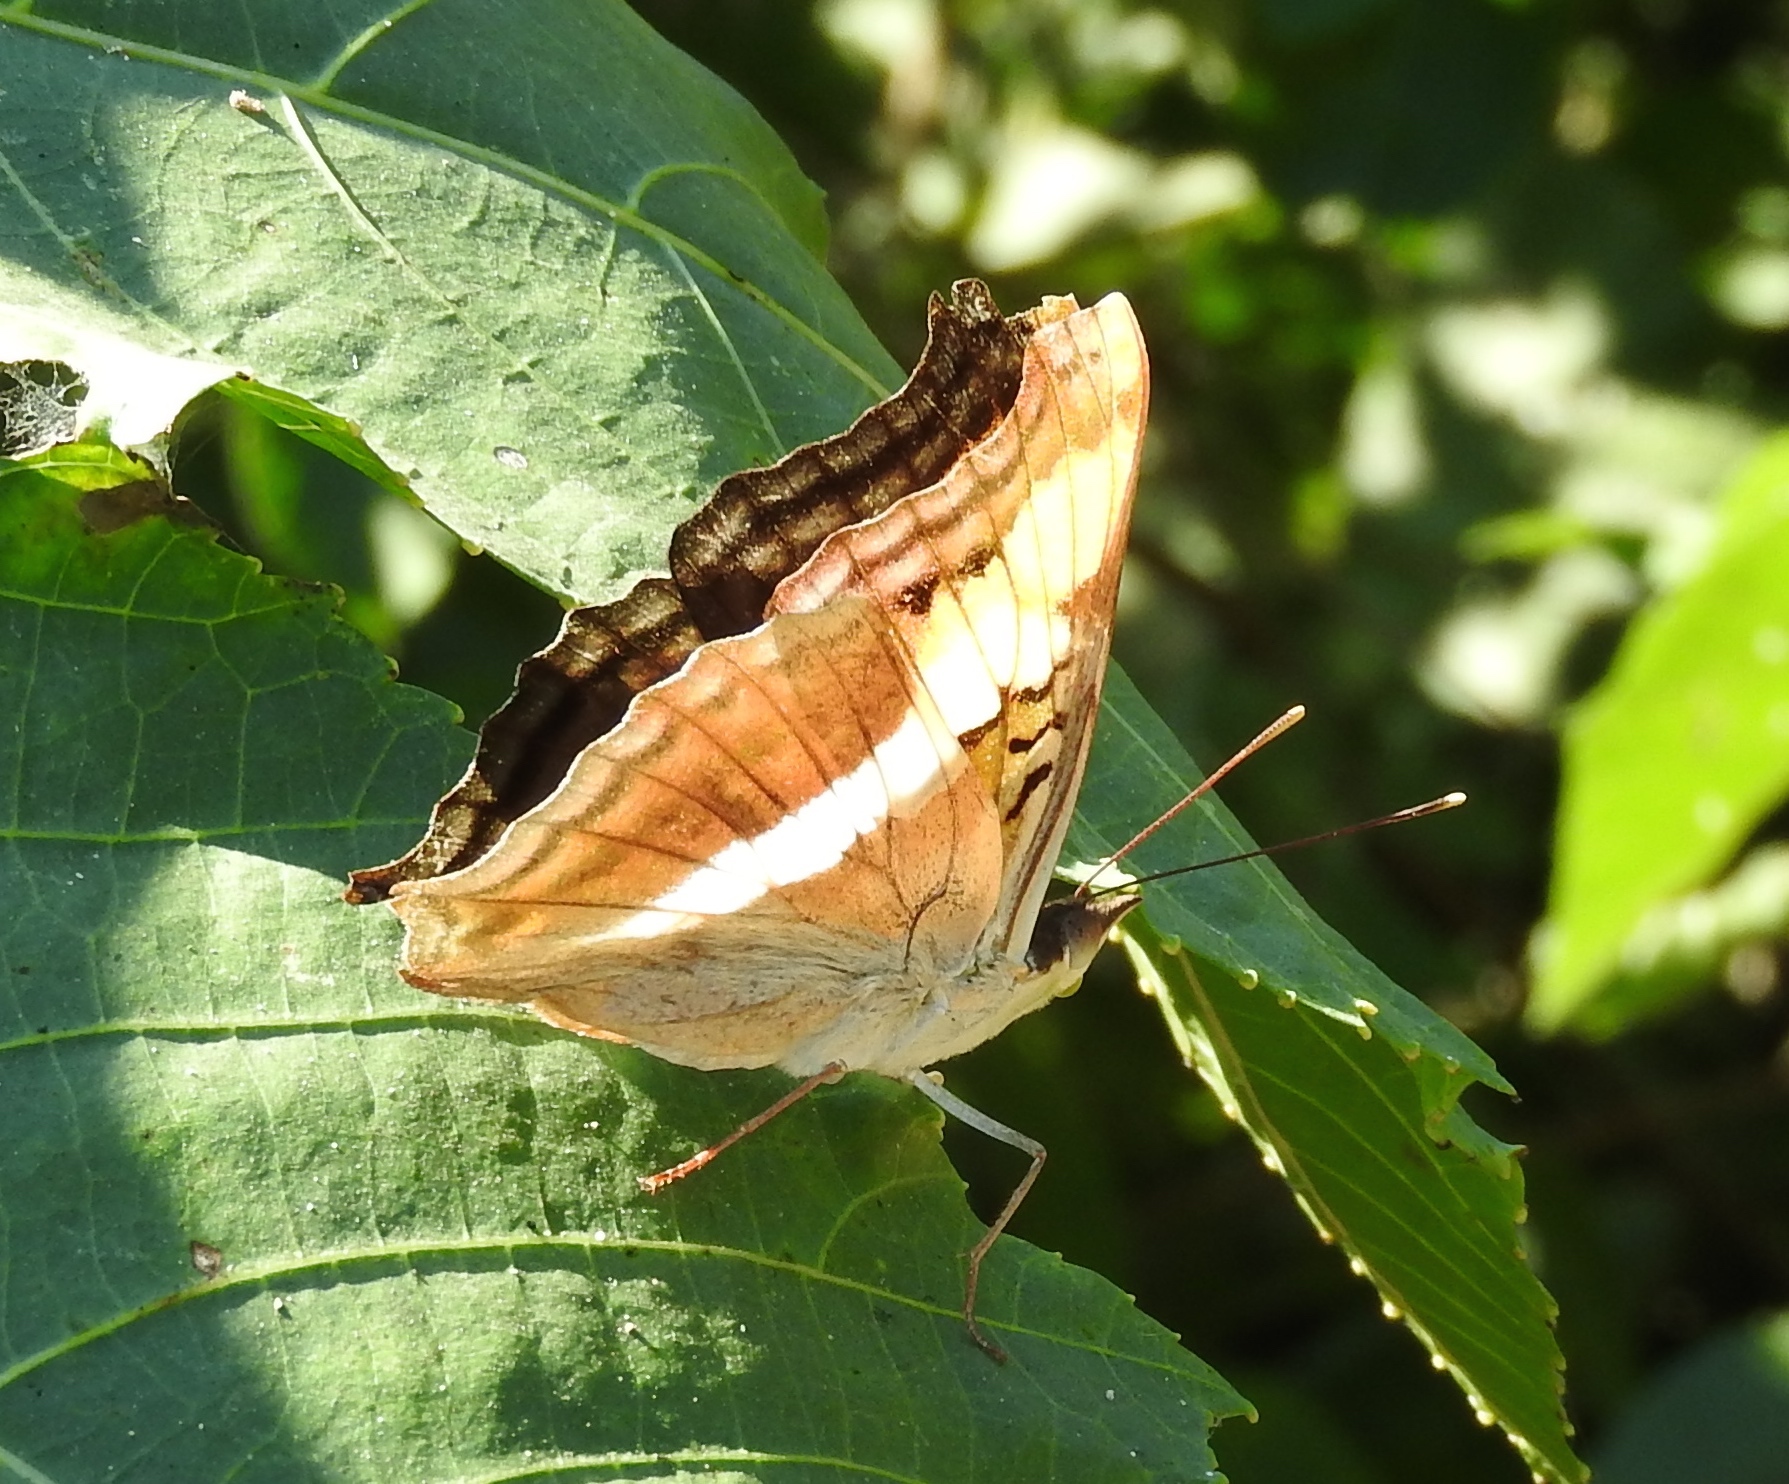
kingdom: Animalia
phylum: Arthropoda
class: Insecta
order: Lepidoptera
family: Nymphalidae
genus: Doxocopa
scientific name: Doxocopa laure
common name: Silver emperor
